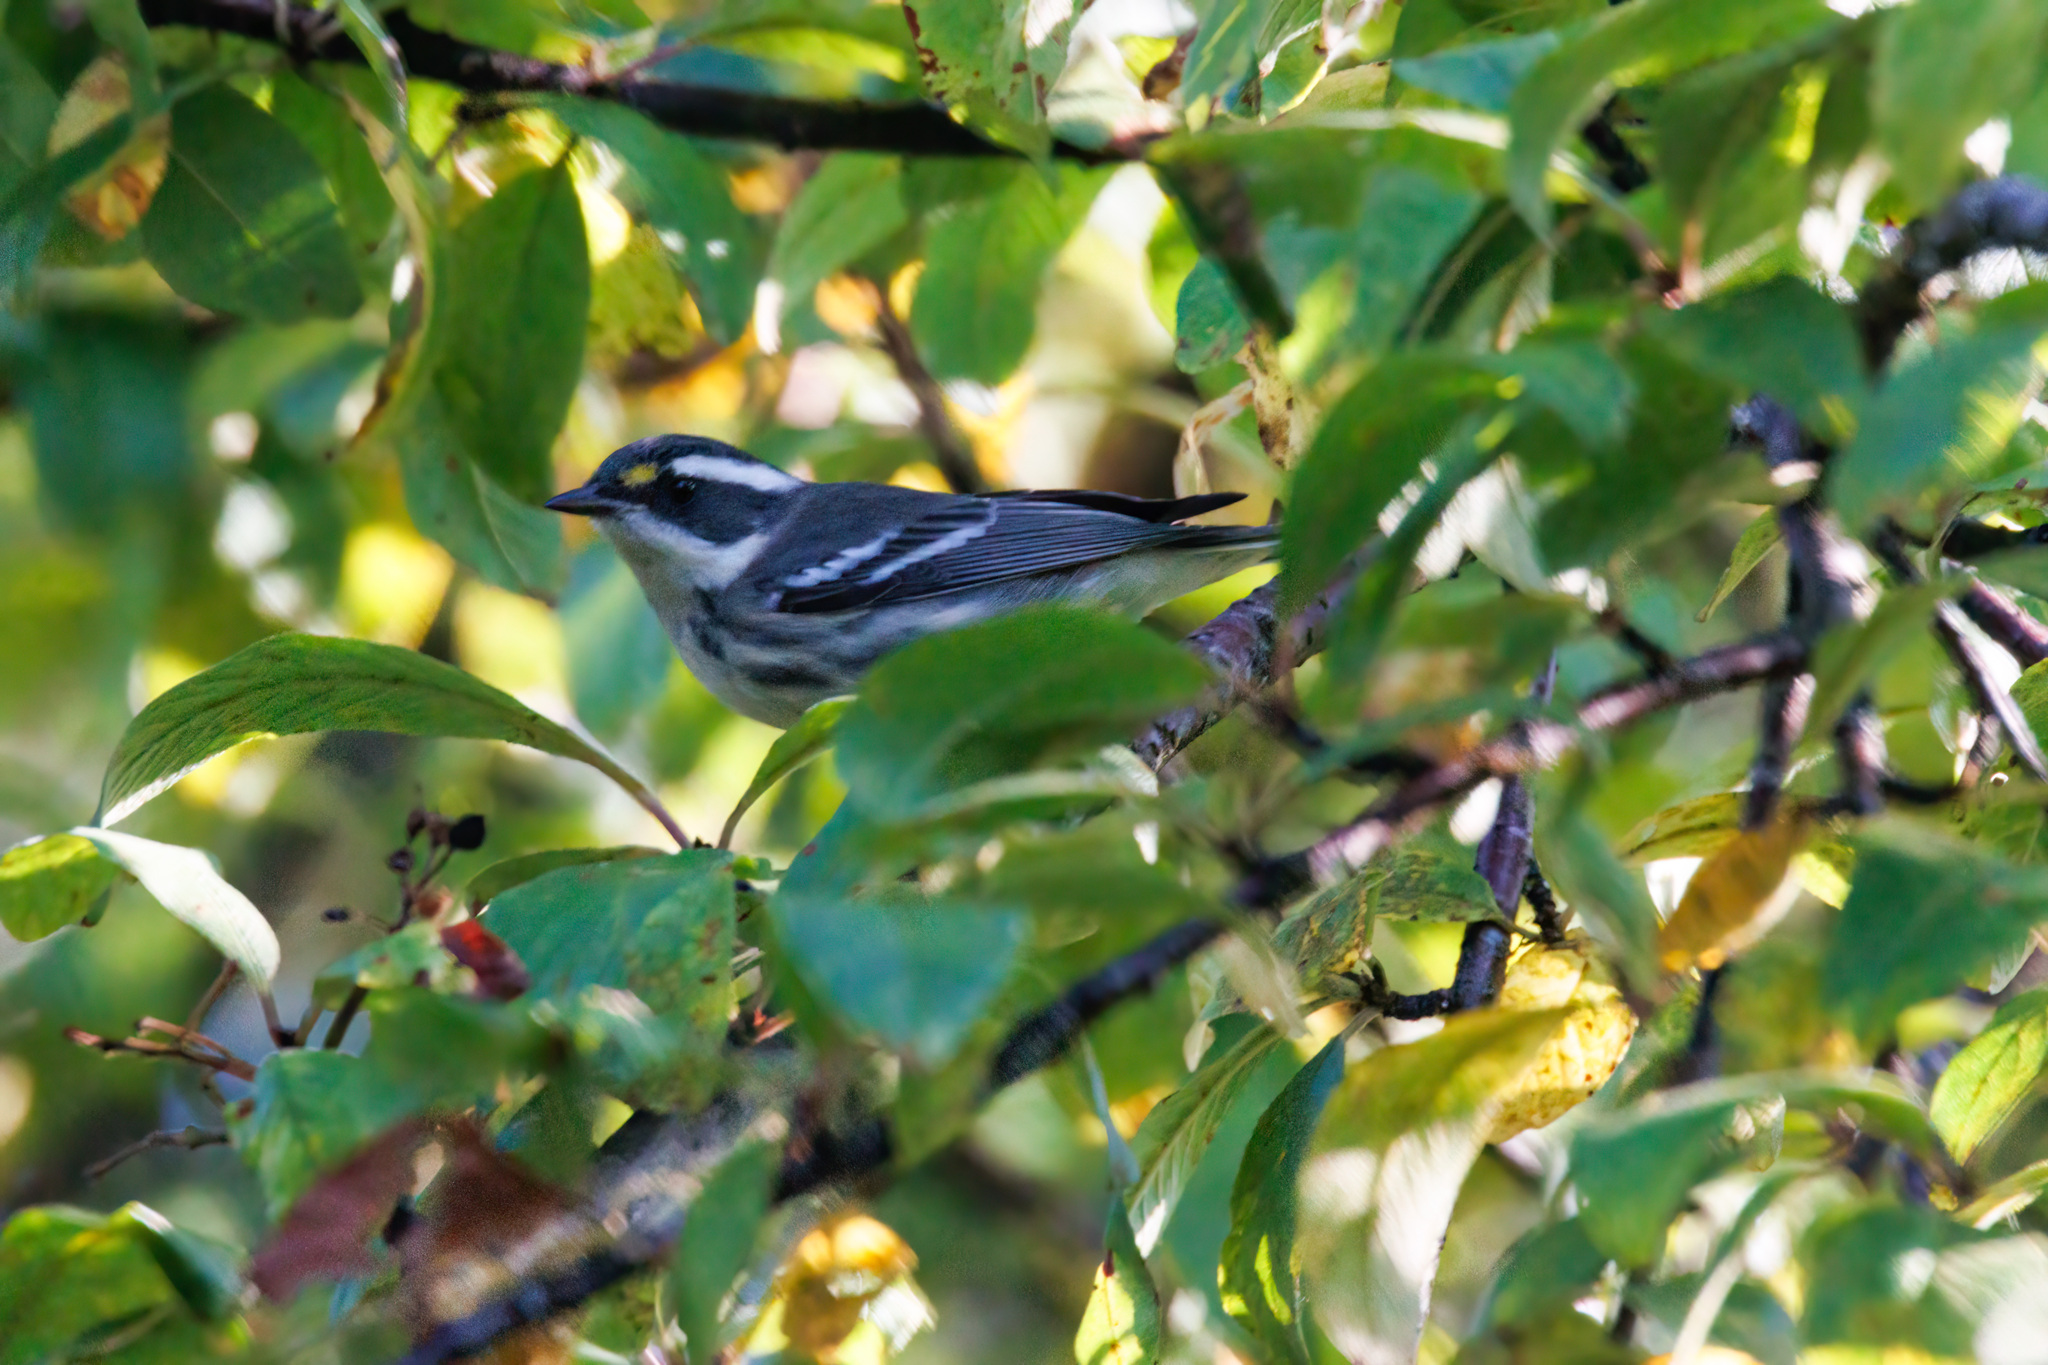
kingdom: Animalia
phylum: Chordata
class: Aves
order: Passeriformes
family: Parulidae
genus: Setophaga
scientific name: Setophaga nigrescens
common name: Black-throated gray warbler
